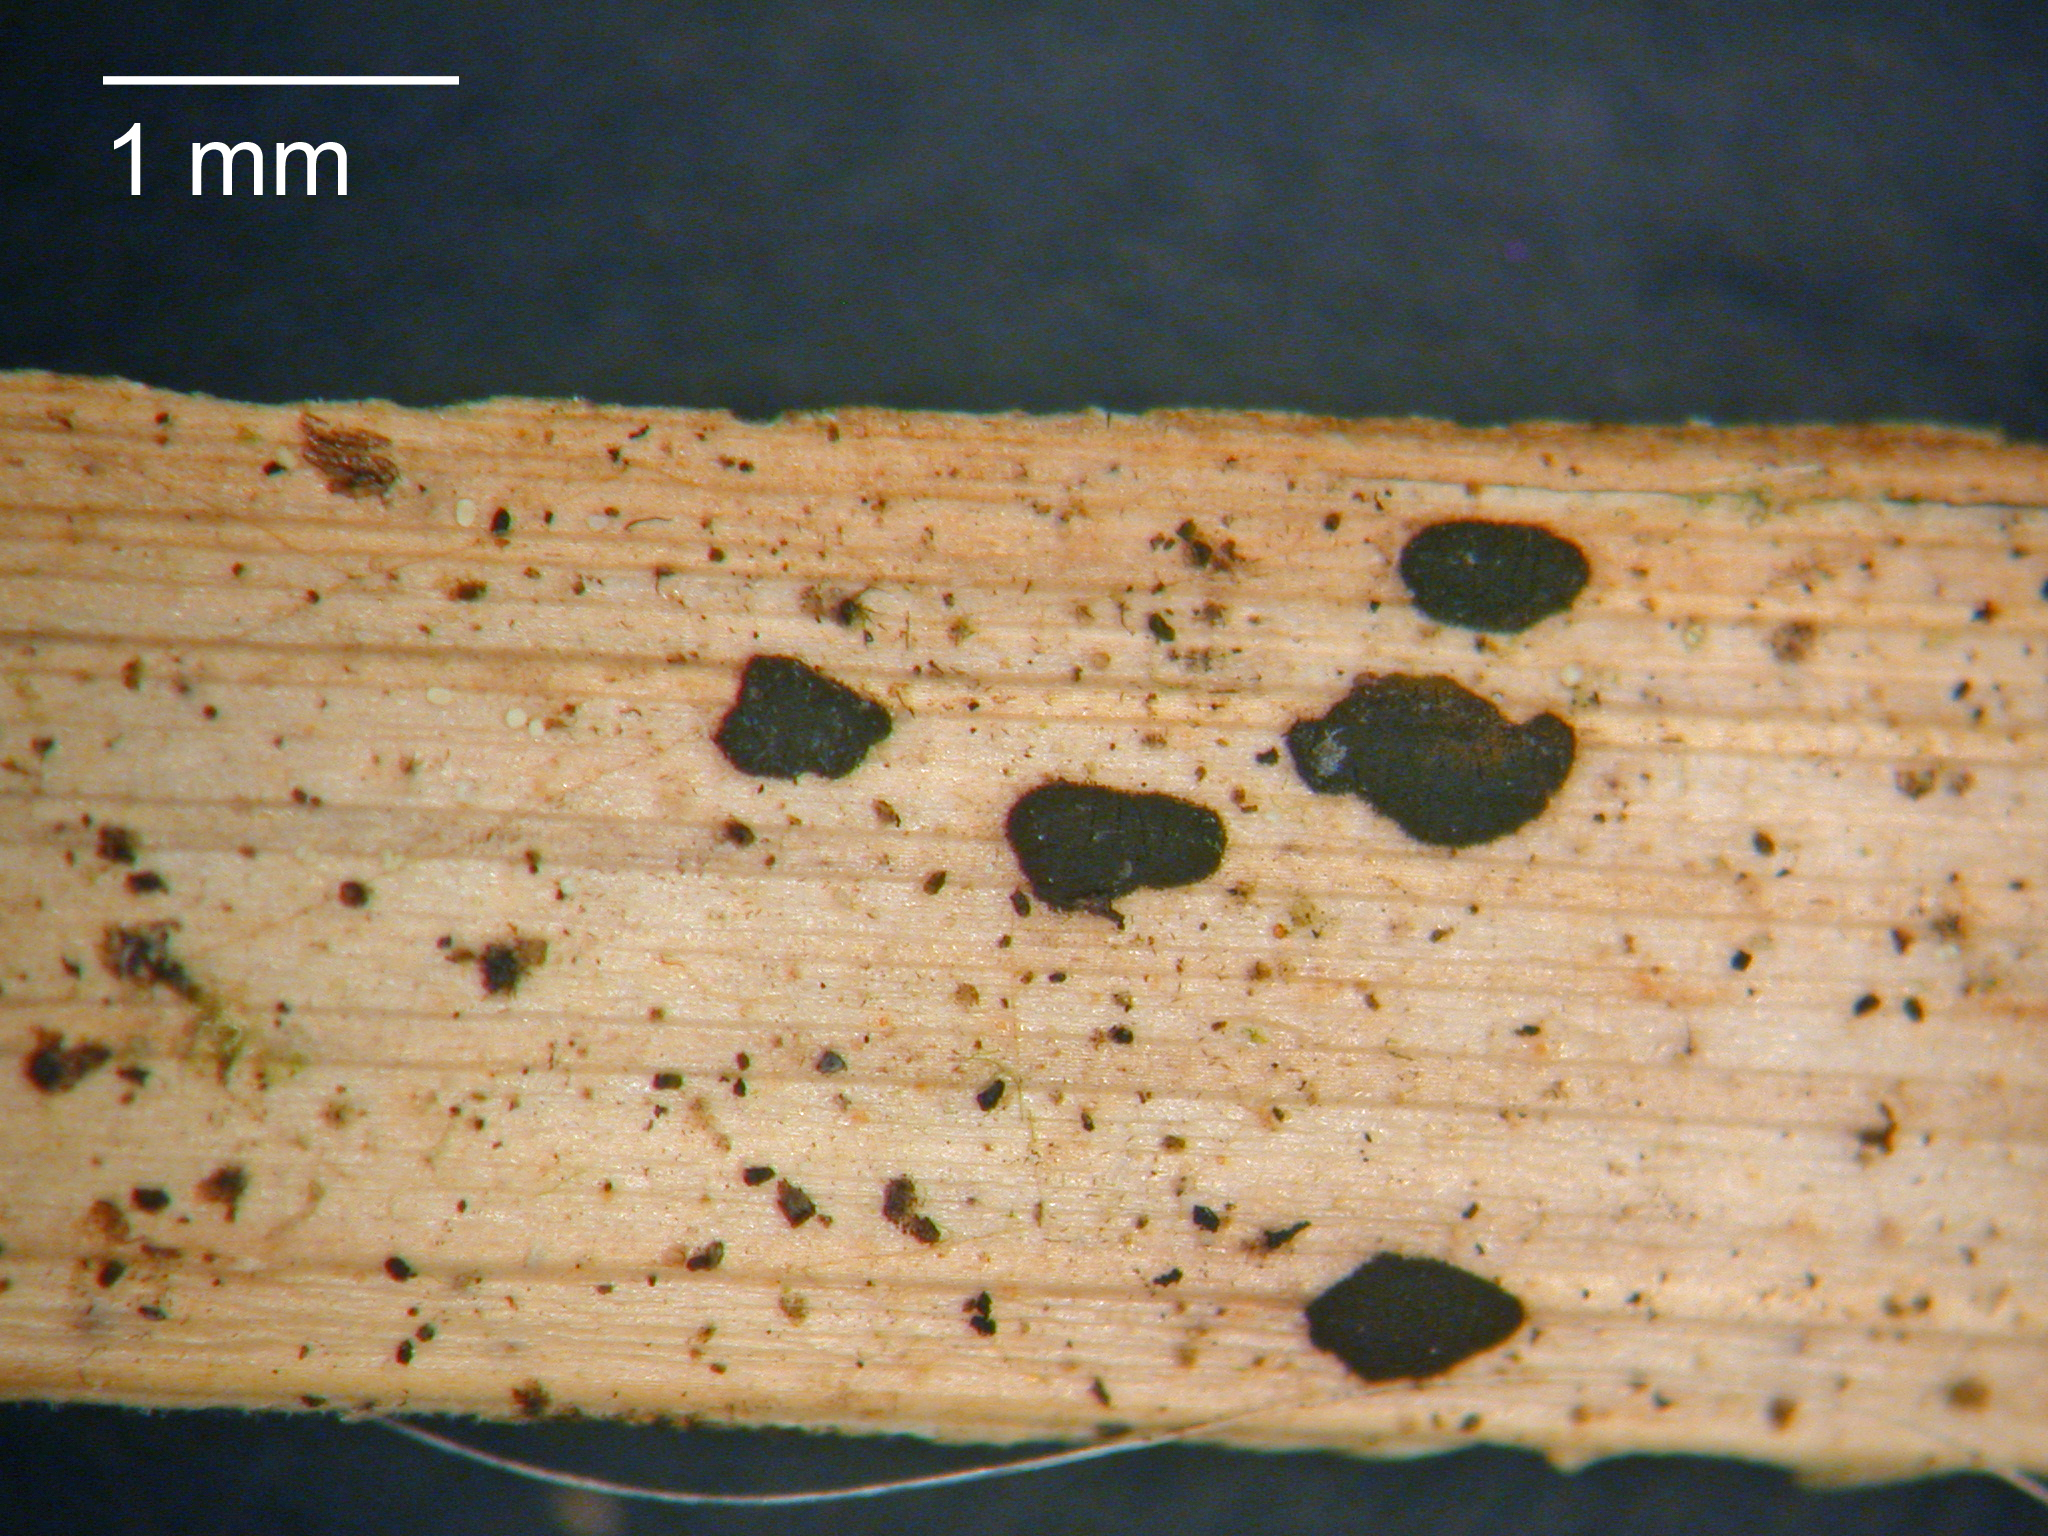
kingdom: Fungi
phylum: Ascomycota
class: Dothideomycetes
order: Pleosporales
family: Torulaceae
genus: Rutola
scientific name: Rutola graminis
